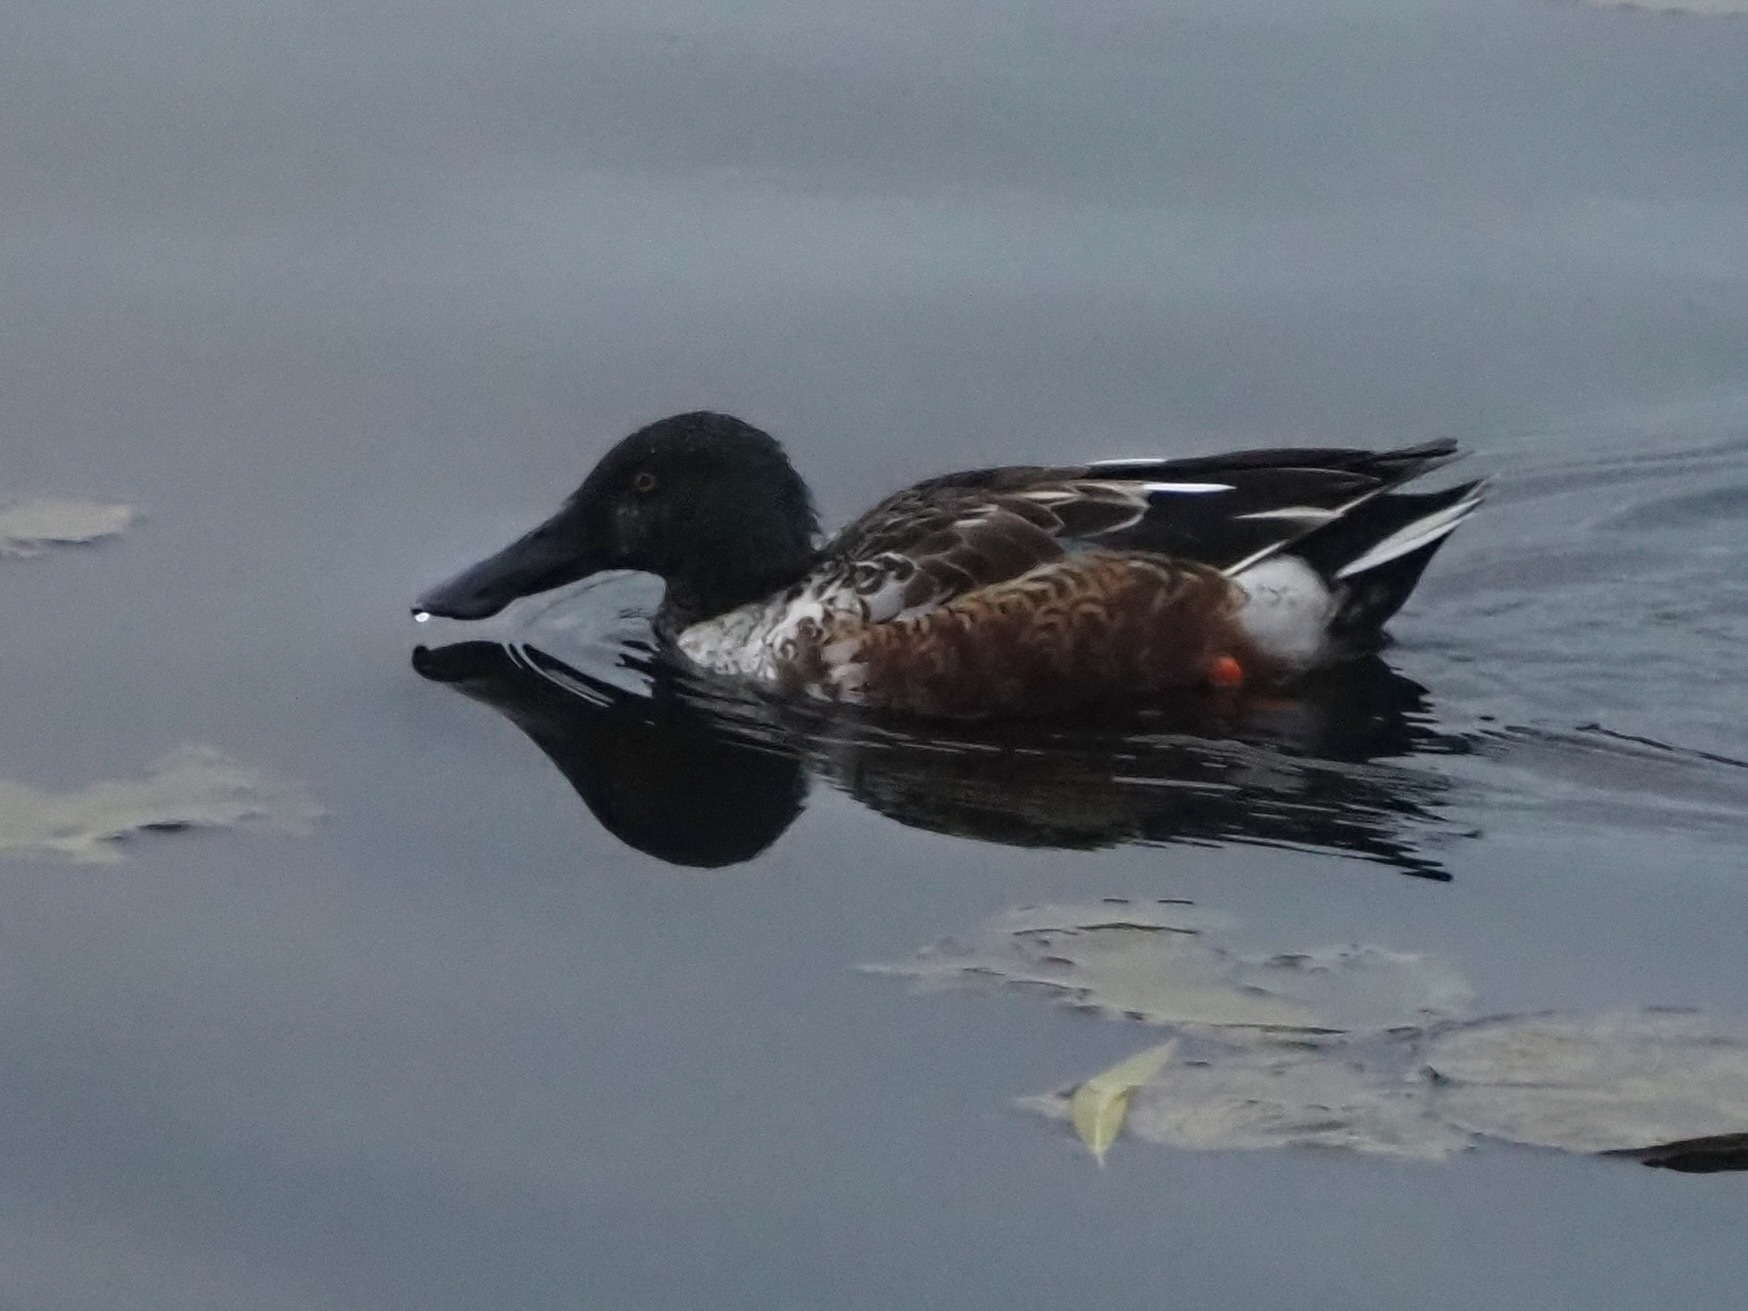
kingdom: Animalia
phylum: Chordata
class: Aves
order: Anseriformes
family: Anatidae
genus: Spatula
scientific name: Spatula clypeata
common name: Northern shoveler
